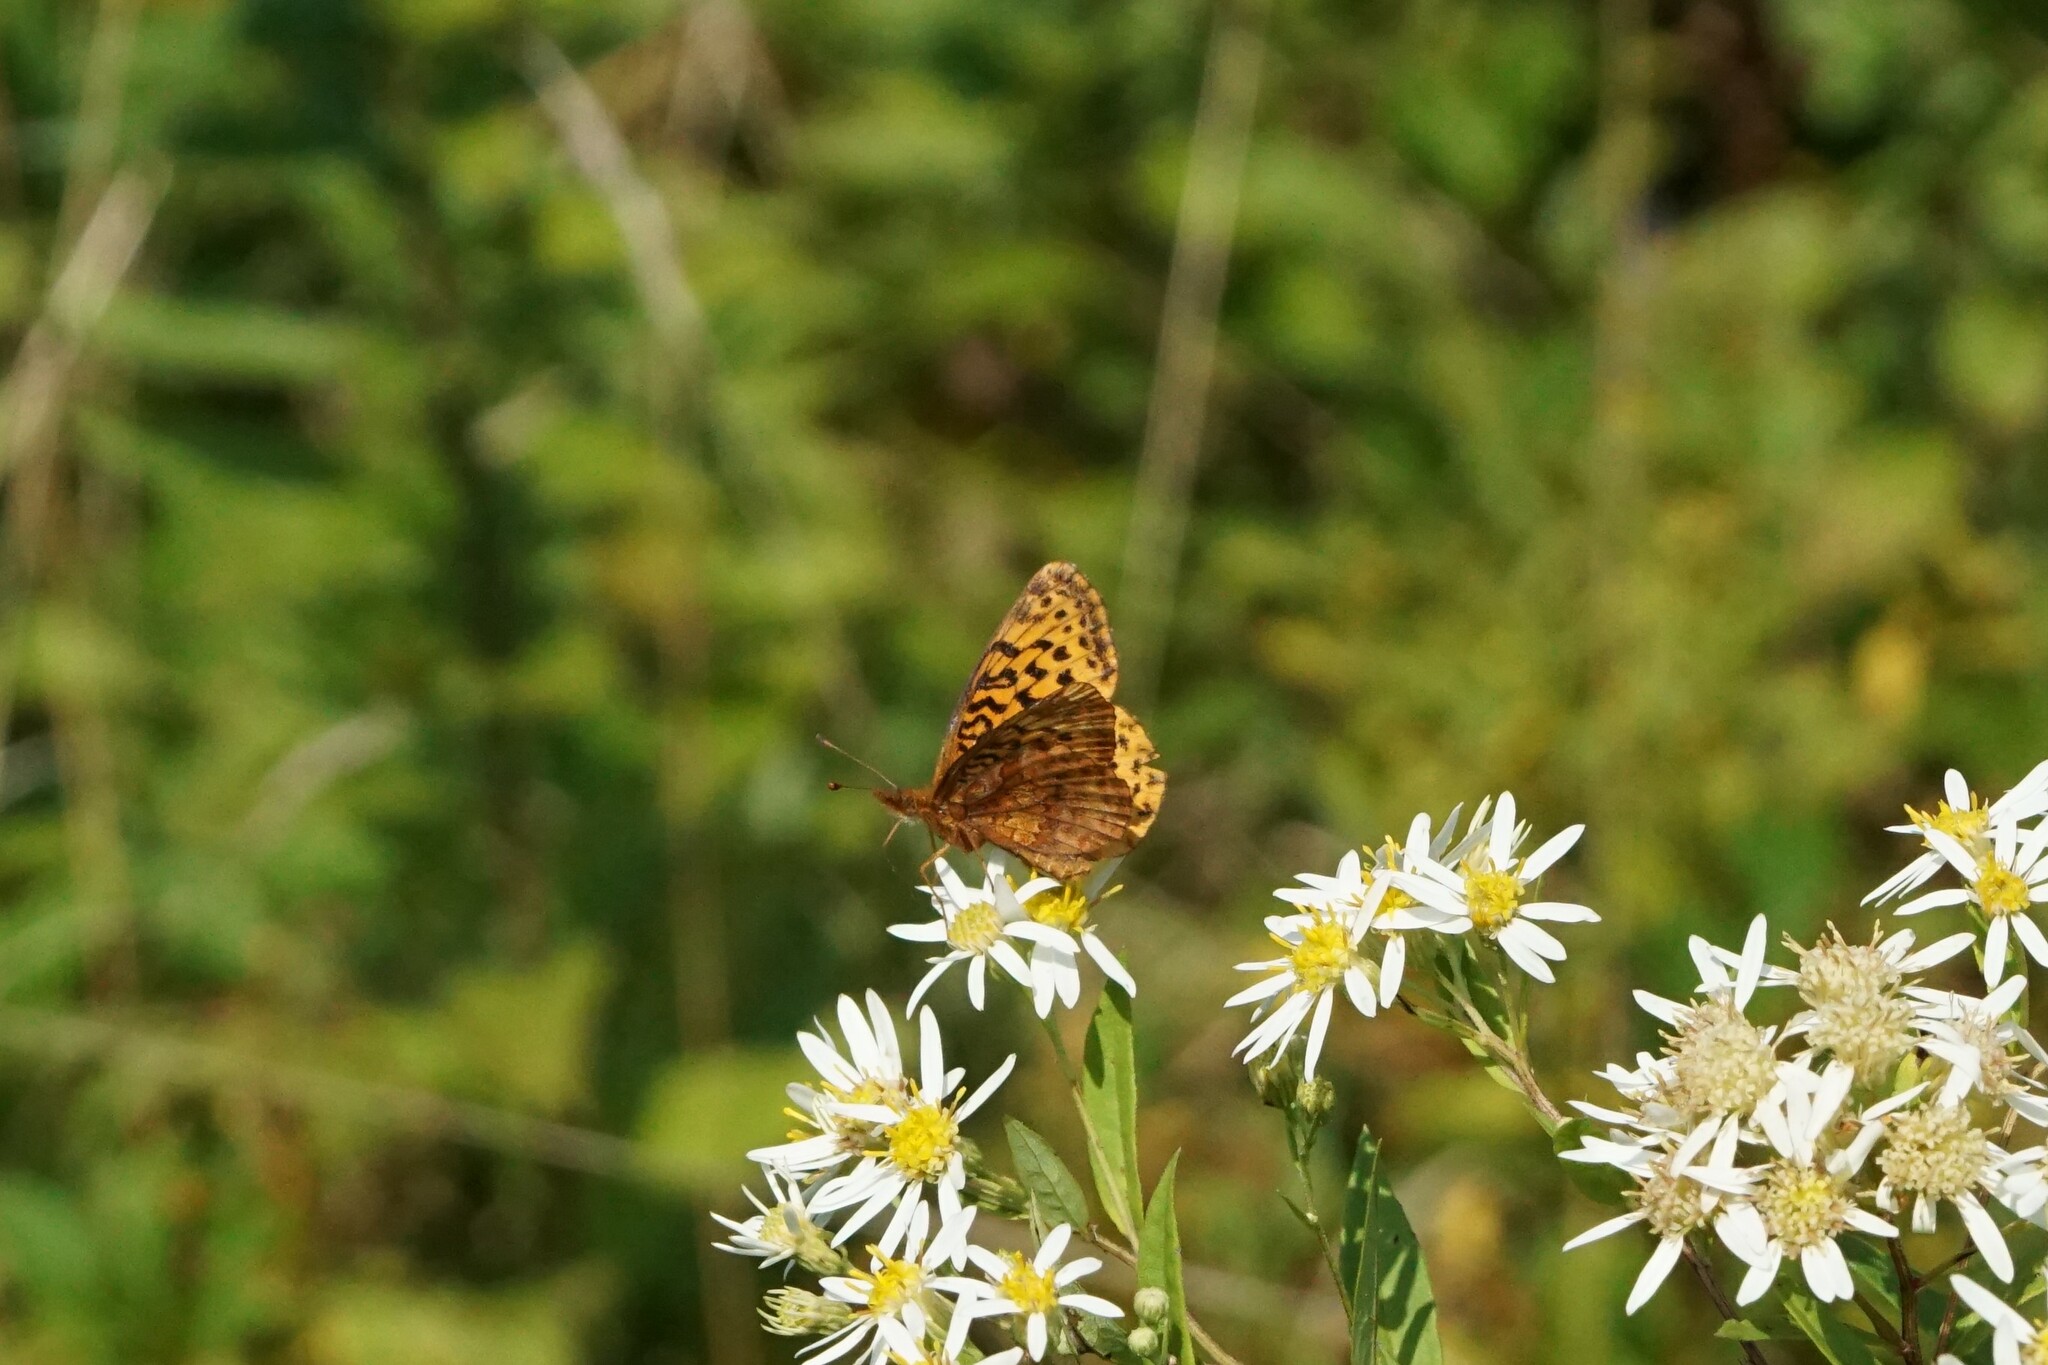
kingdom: Animalia
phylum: Arthropoda
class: Insecta
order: Lepidoptera
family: Nymphalidae
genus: Clossiana
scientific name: Clossiana toddi
